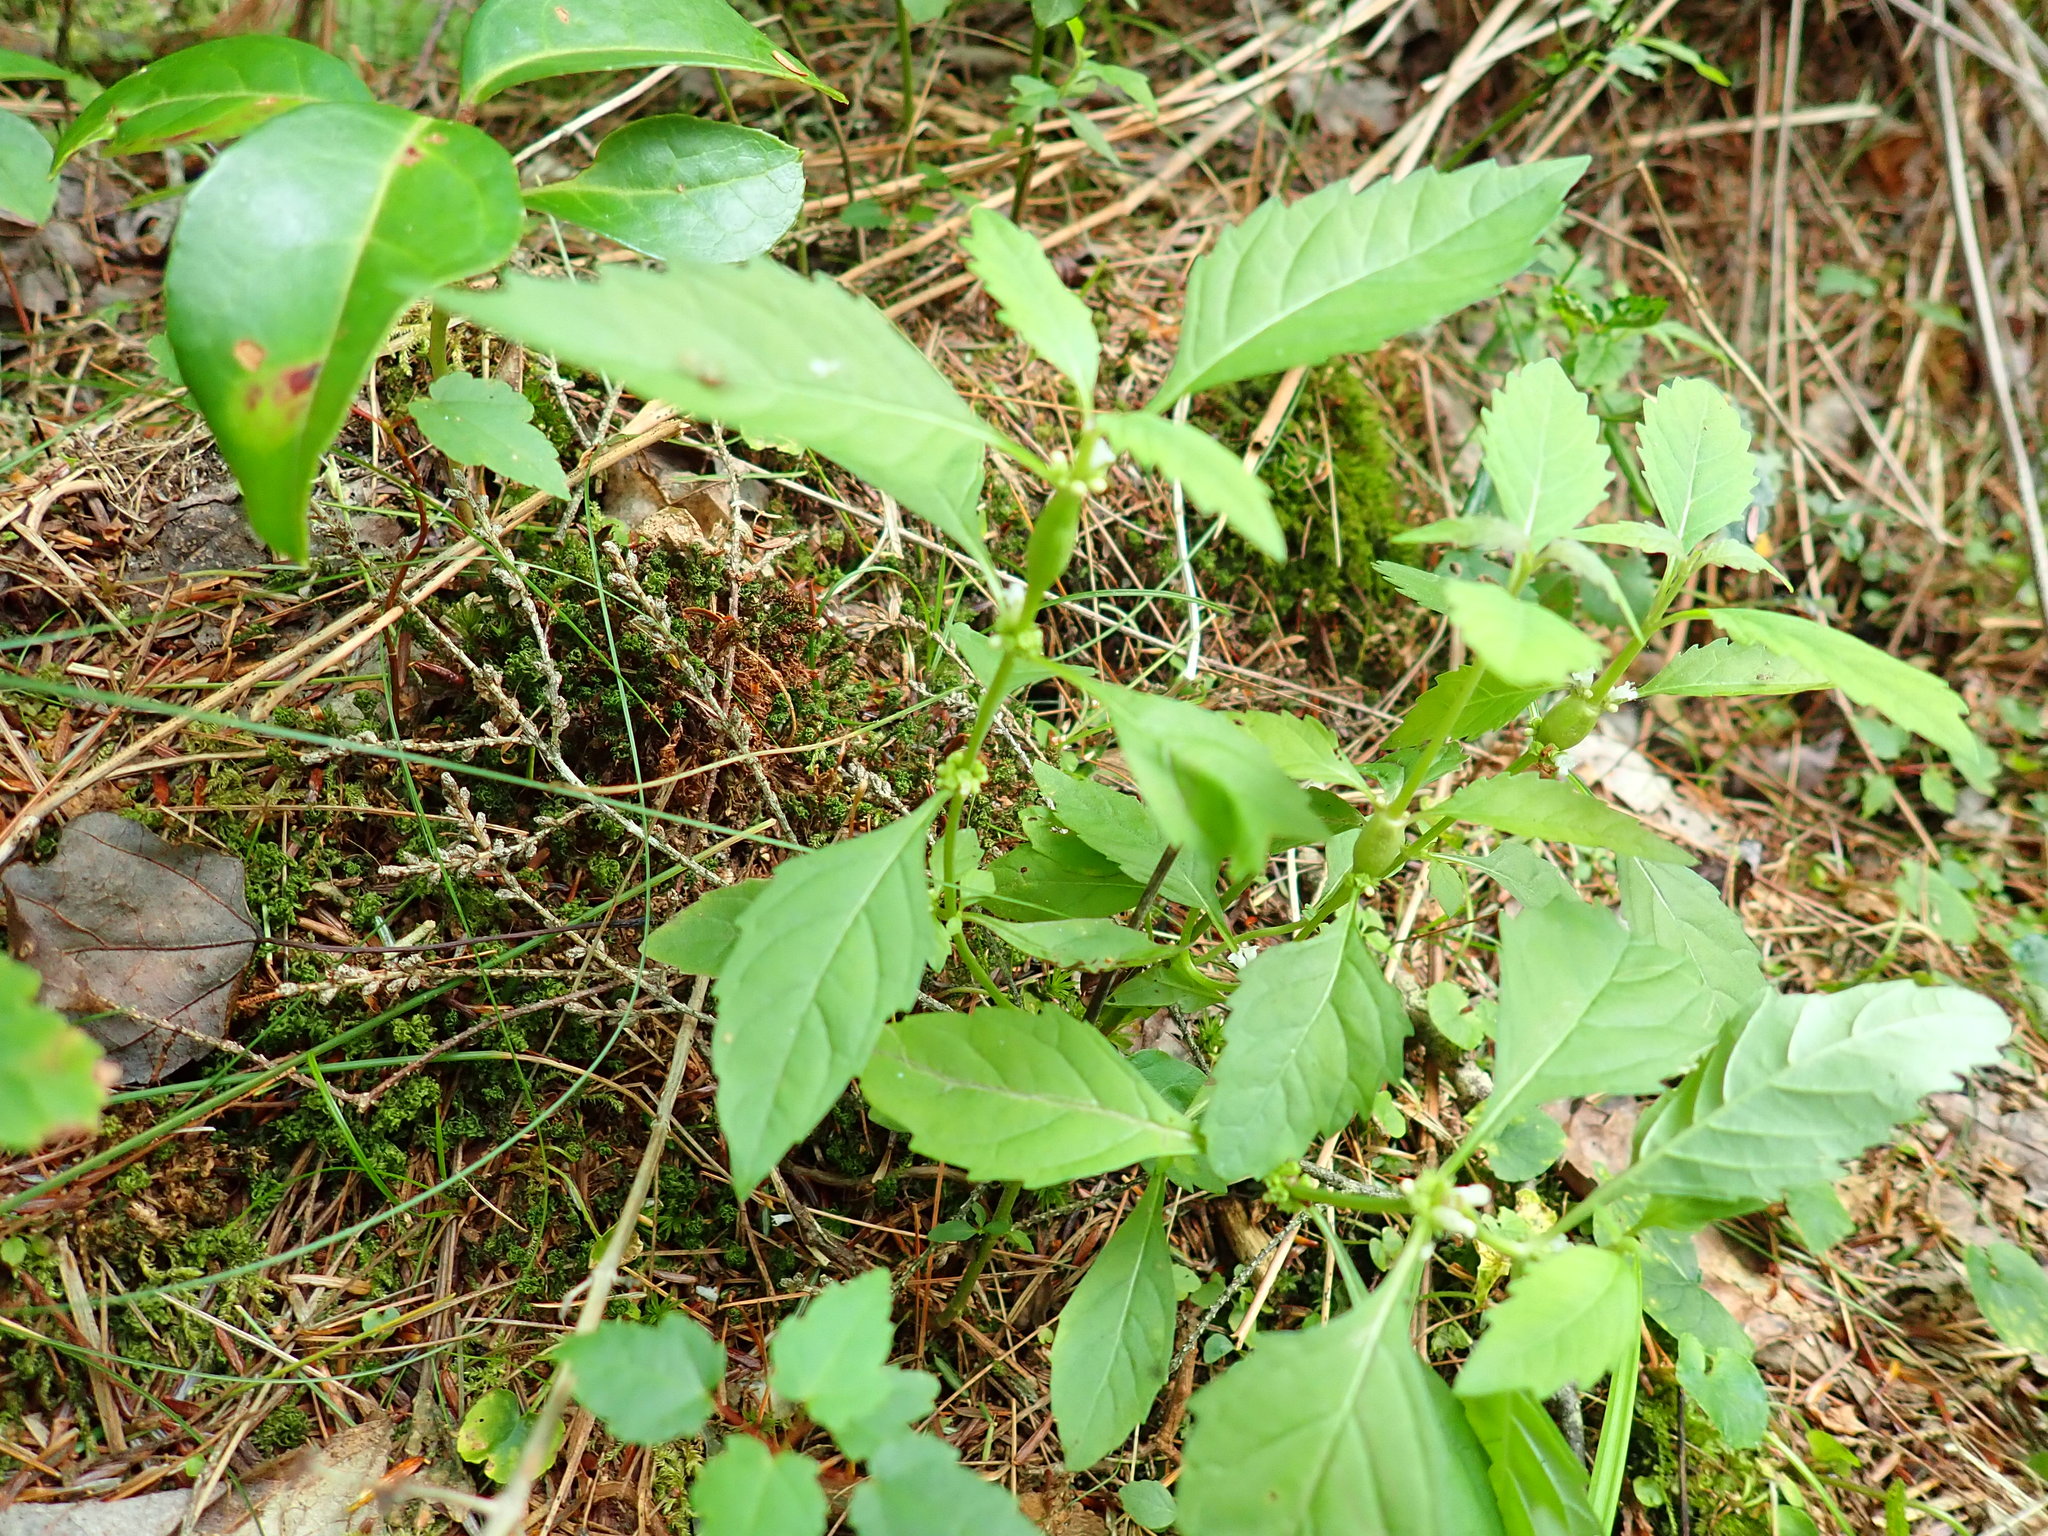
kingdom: Plantae
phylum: Tracheophyta
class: Magnoliopsida
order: Lamiales
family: Lamiaceae
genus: Lycopus
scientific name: Lycopus uniflorus
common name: Northern bugleweed
